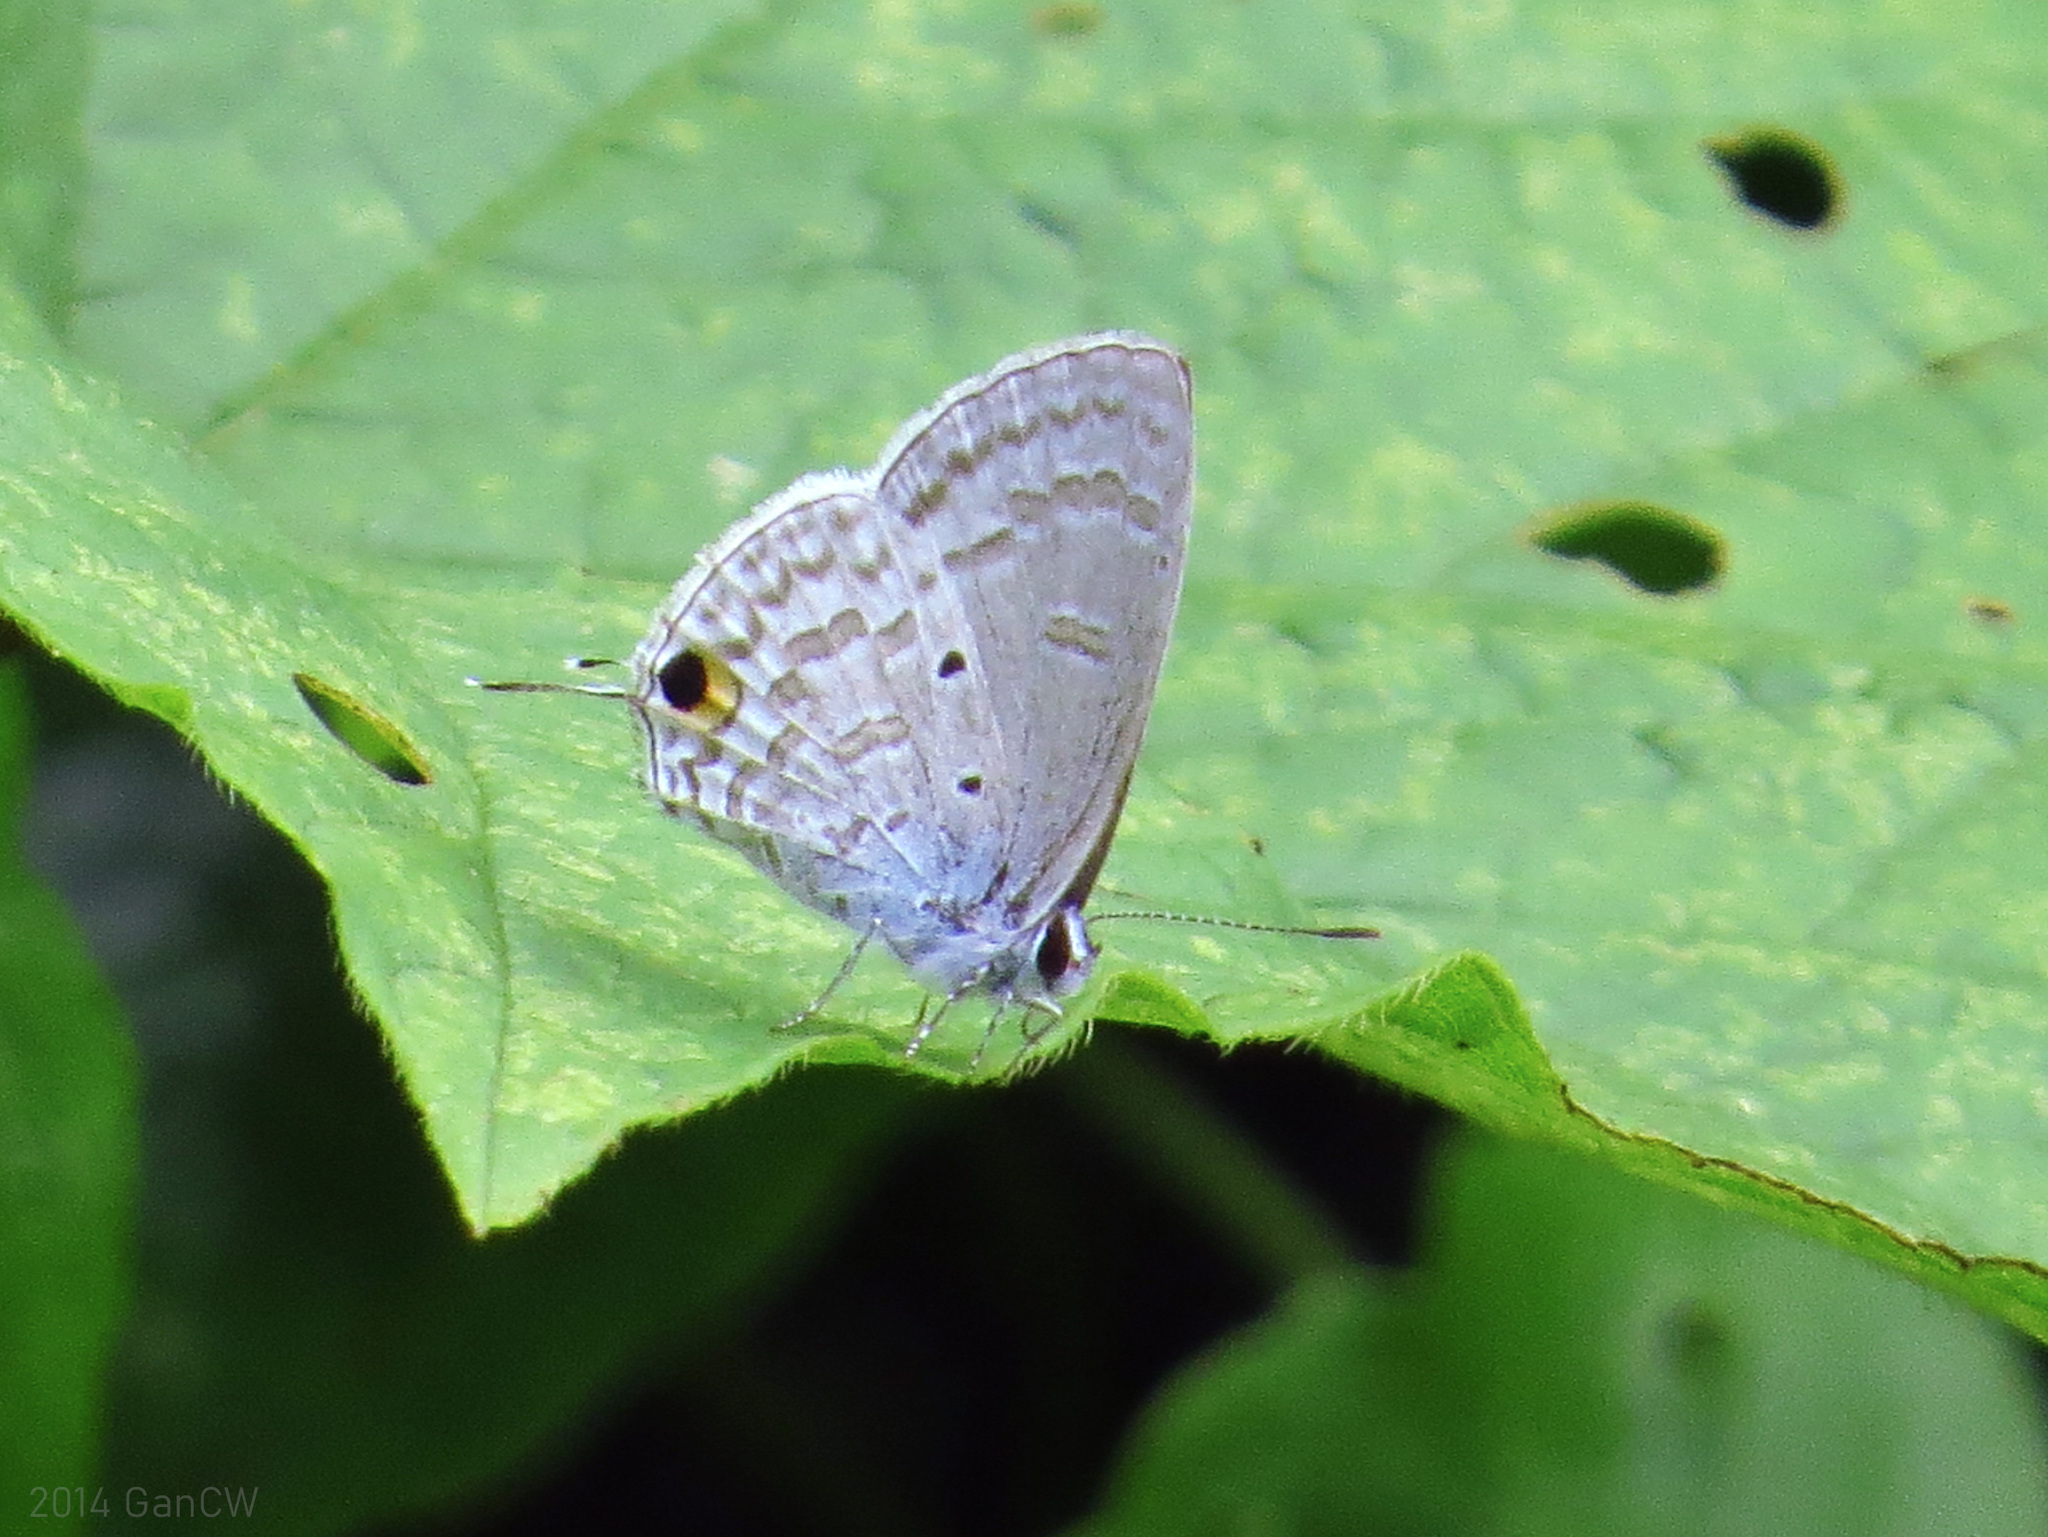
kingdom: Animalia
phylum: Arthropoda
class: Insecta
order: Lepidoptera
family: Lycaenidae
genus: Catochrysops
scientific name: Catochrysops panormus
